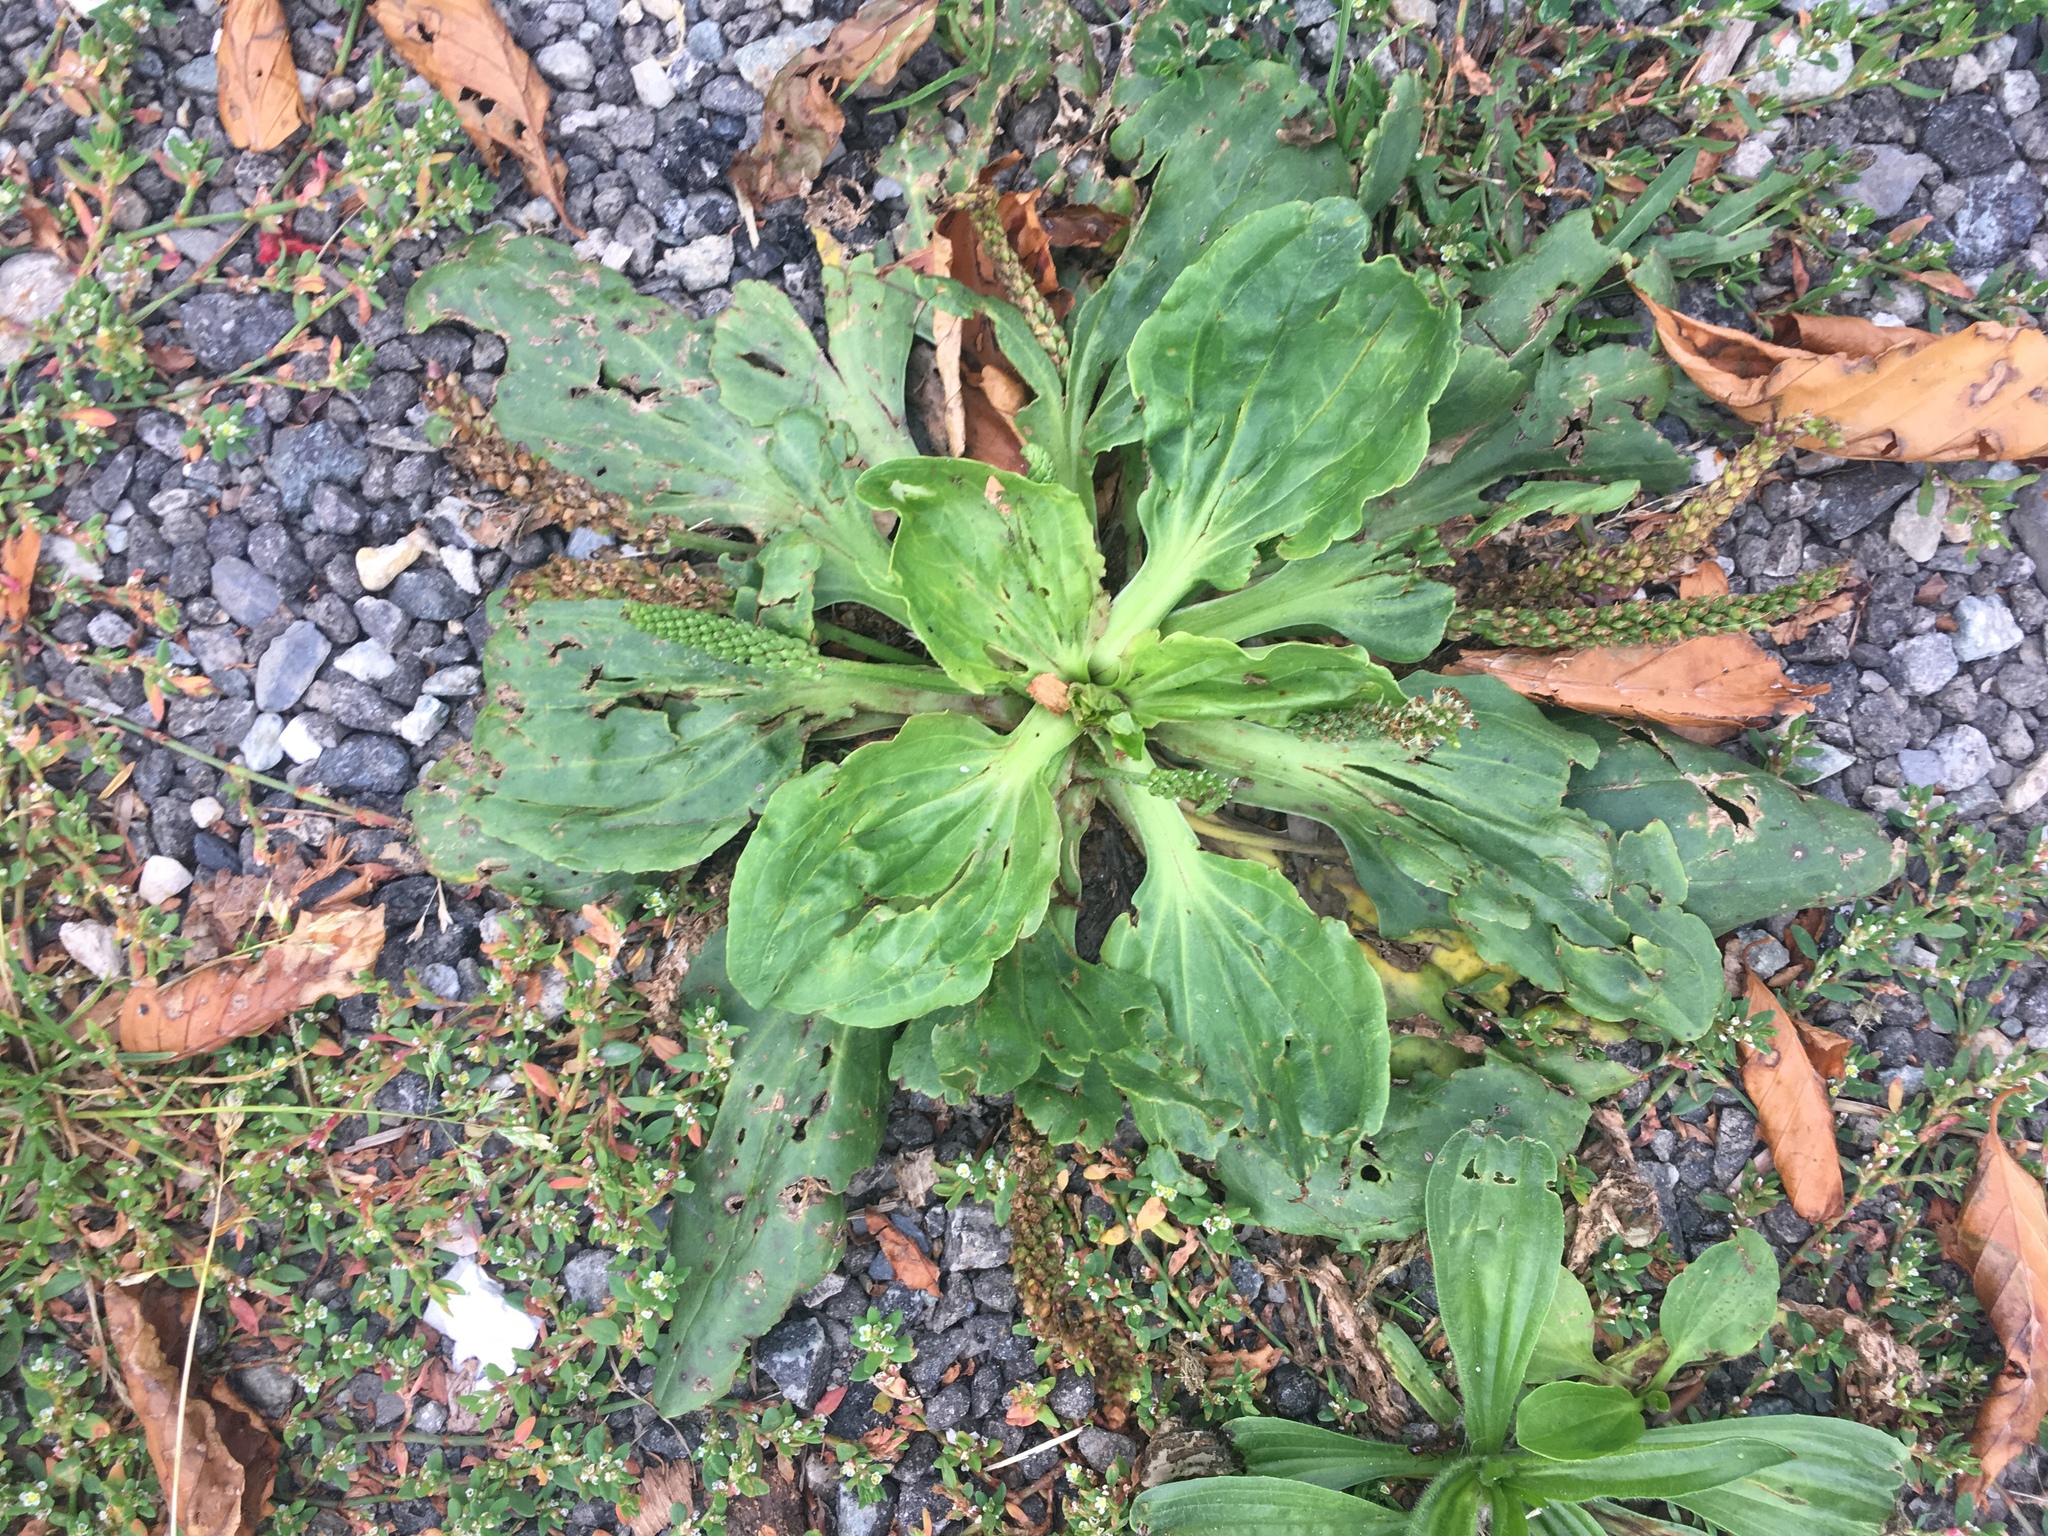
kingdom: Plantae
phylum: Tracheophyta
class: Magnoliopsida
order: Lamiales
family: Plantaginaceae
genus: Plantago
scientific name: Plantago major
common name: Common plantain
